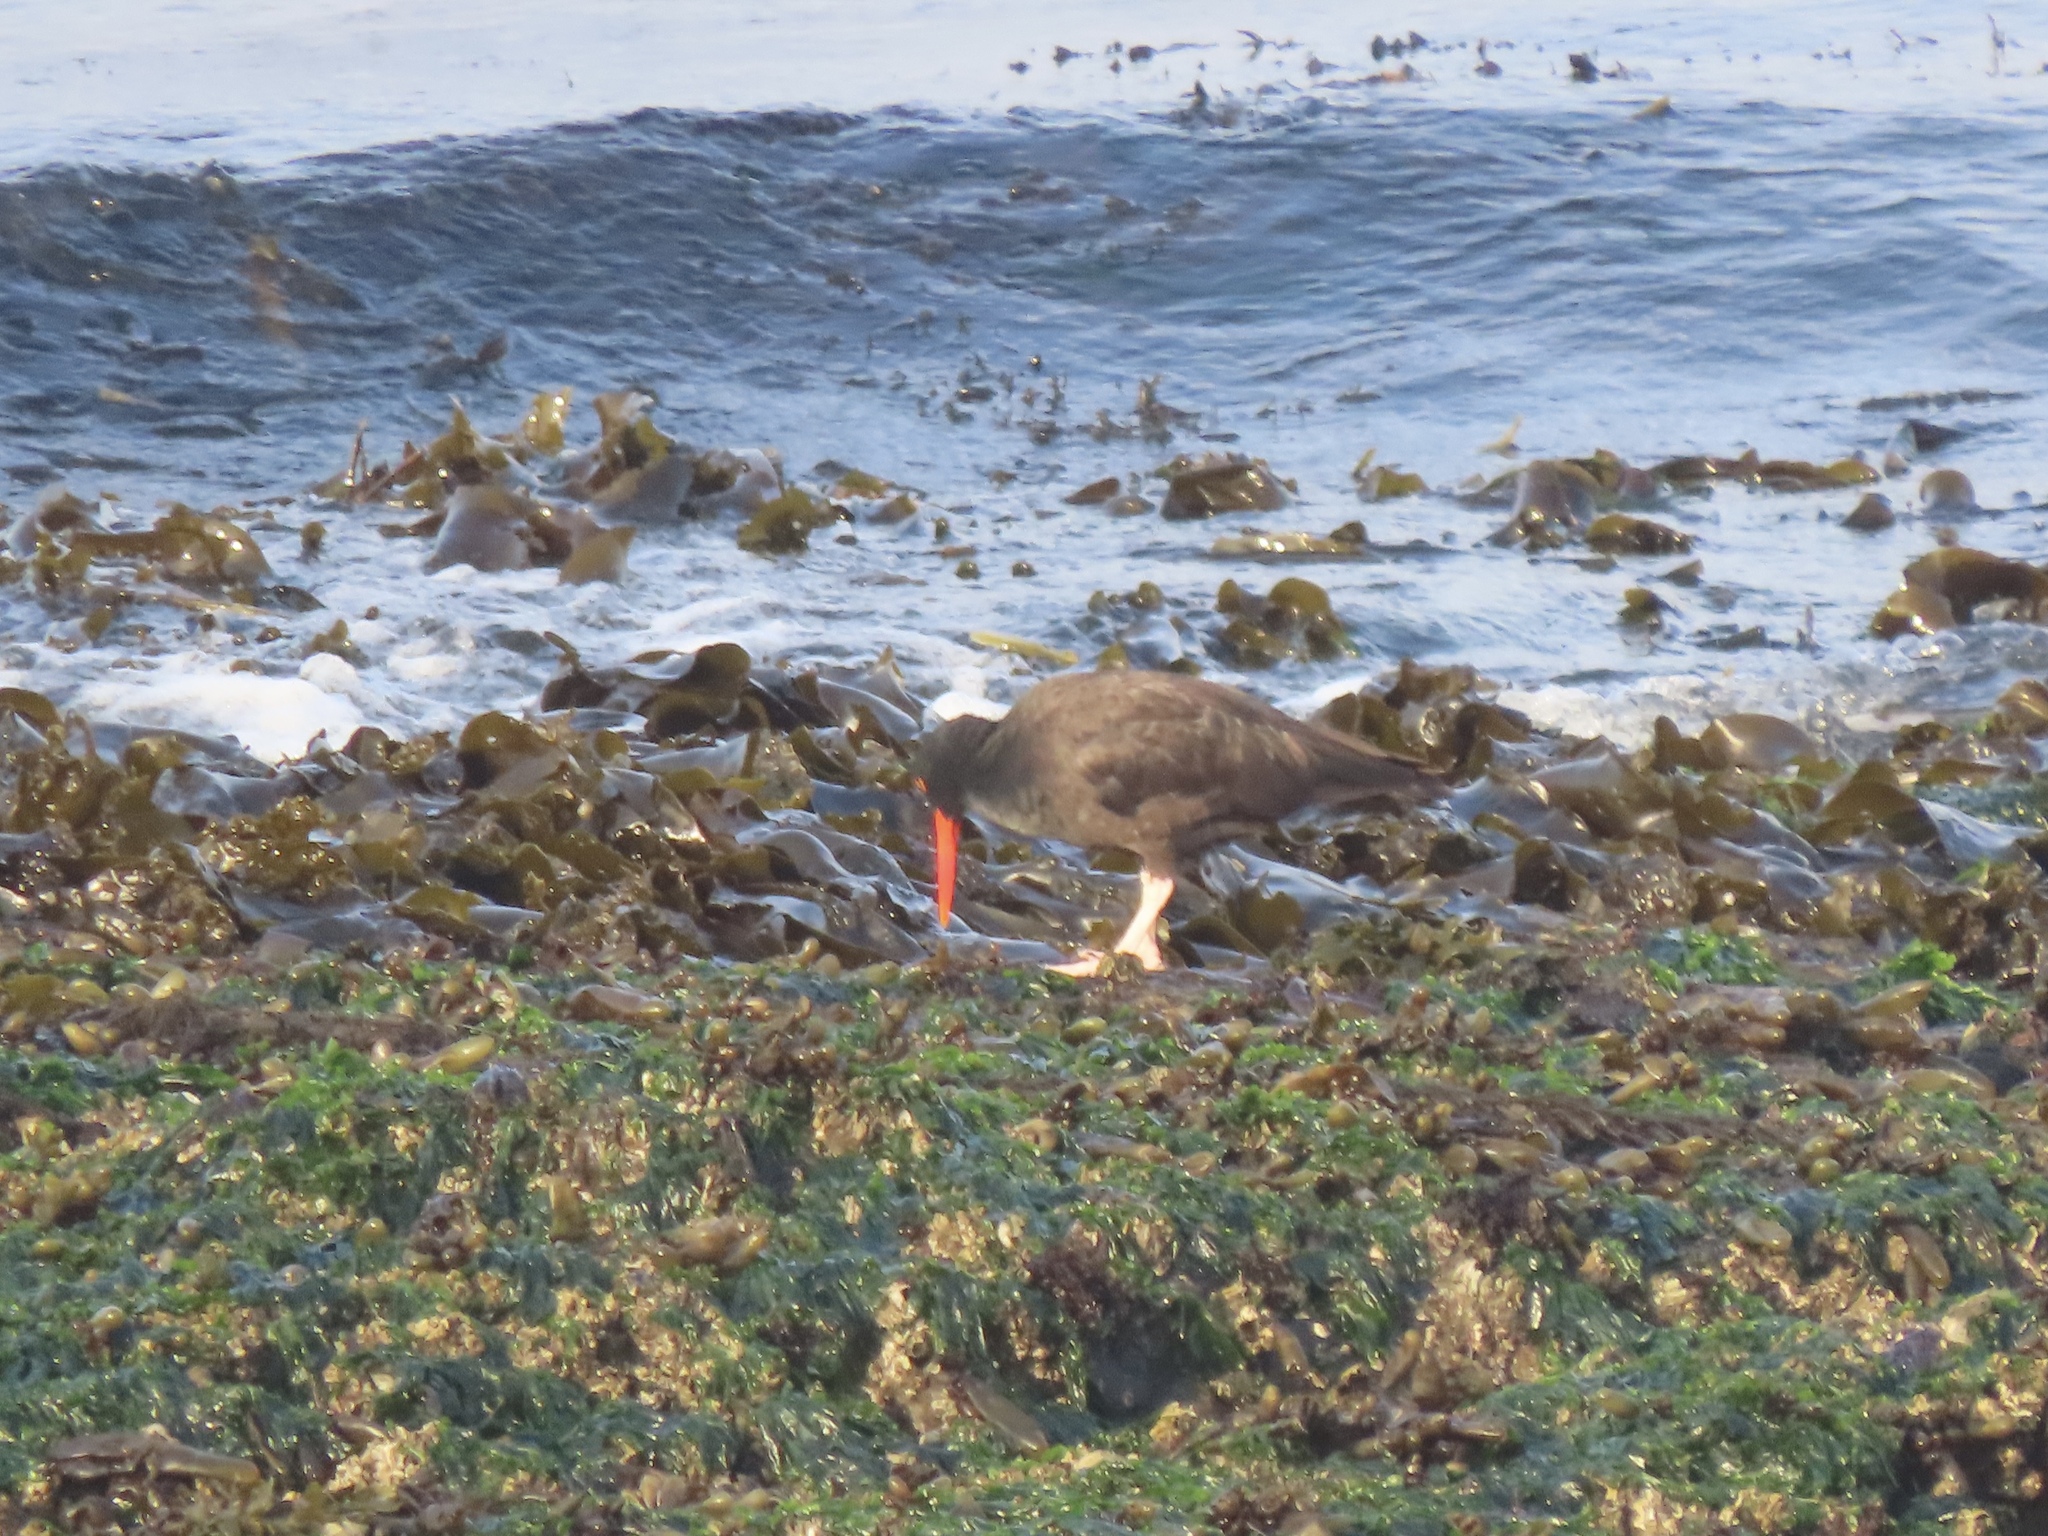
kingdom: Animalia
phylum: Chordata
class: Aves
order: Charadriiformes
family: Haematopodidae
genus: Haematopus
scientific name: Haematopus bachmani
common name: Black oystercatcher
